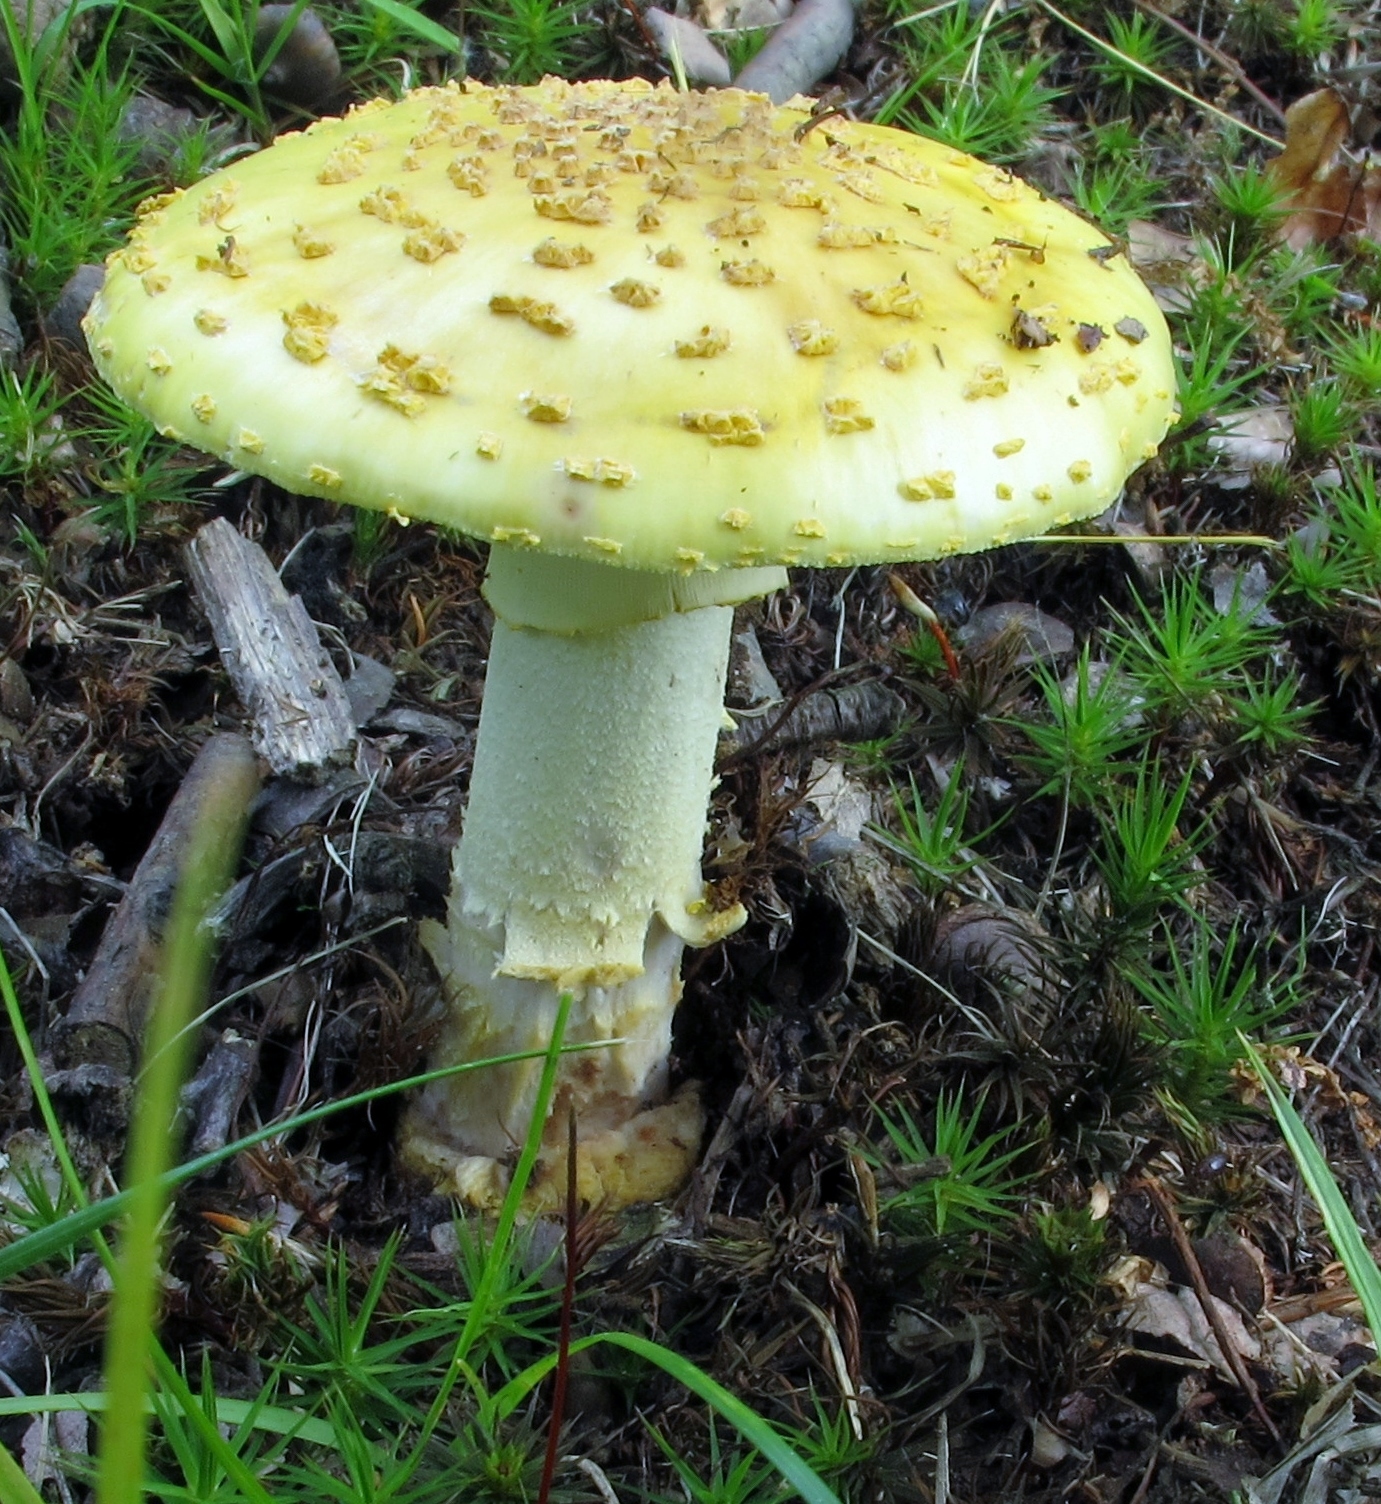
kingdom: Fungi
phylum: Basidiomycota
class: Agaricomycetes
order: Agaricales
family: Amanitaceae
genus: Amanita
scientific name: Amanita flavorubens
